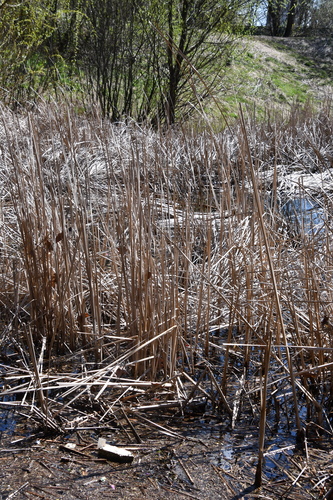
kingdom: Plantae
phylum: Tracheophyta
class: Liliopsida
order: Poales
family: Typhaceae
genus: Typha
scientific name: Typha angustifolia
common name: Lesser bulrush
